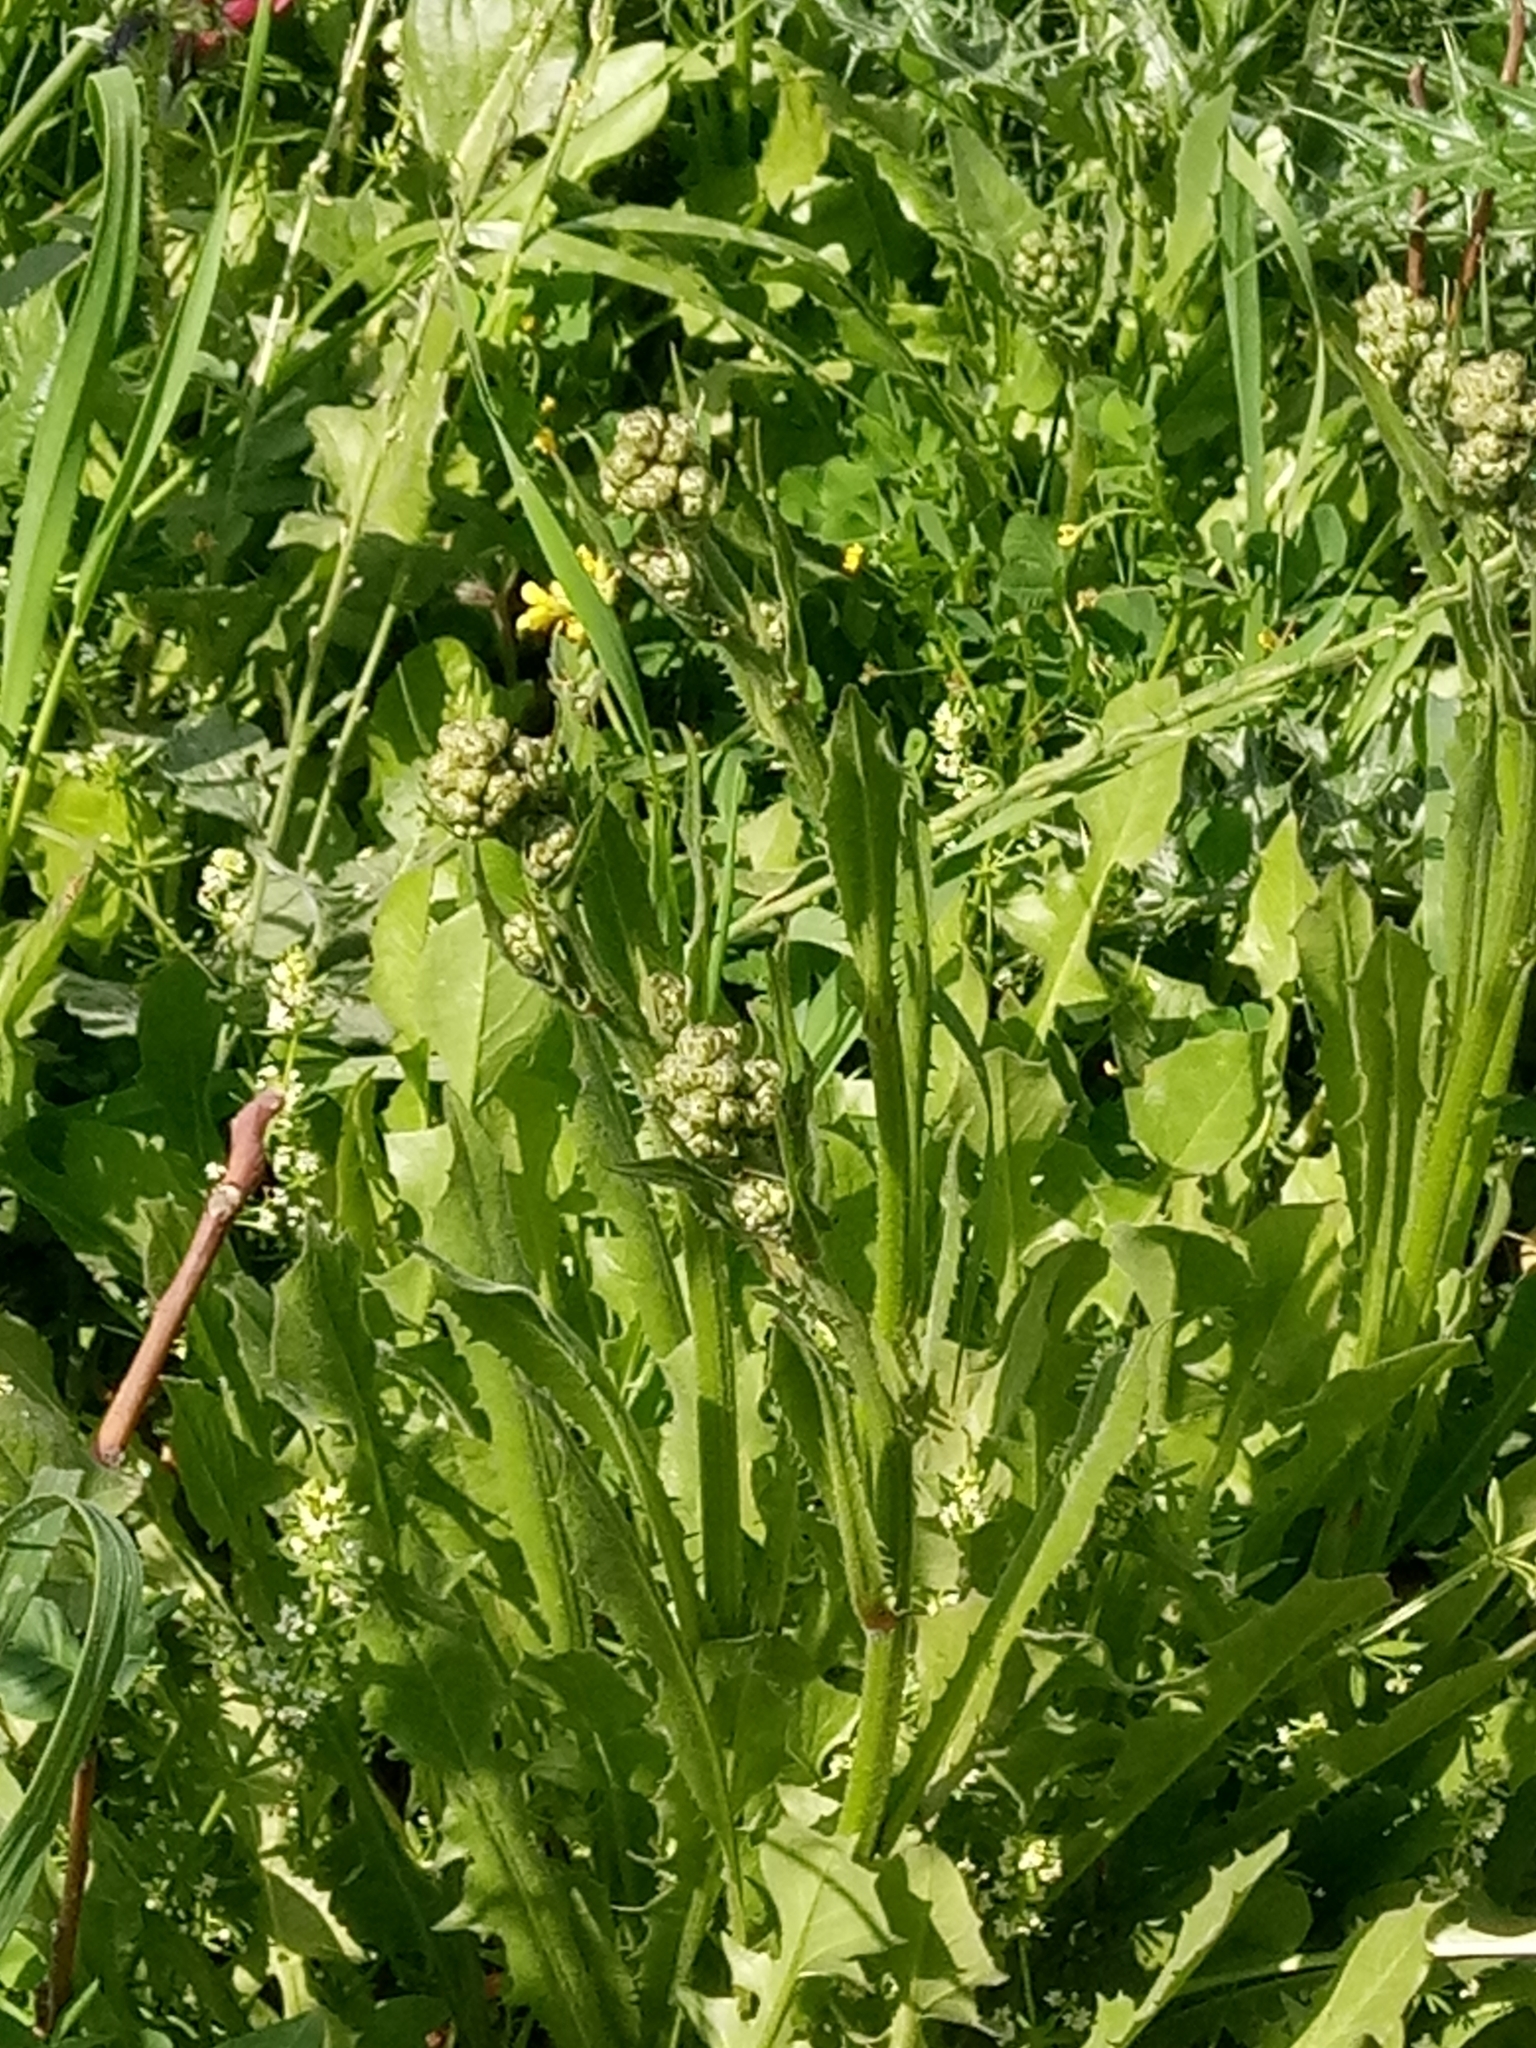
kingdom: Plantae
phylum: Tracheophyta
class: Magnoliopsida
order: Asterales
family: Asteraceae
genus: Crepis
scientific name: Crepis vesicaria
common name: Beaked hawksbeard
